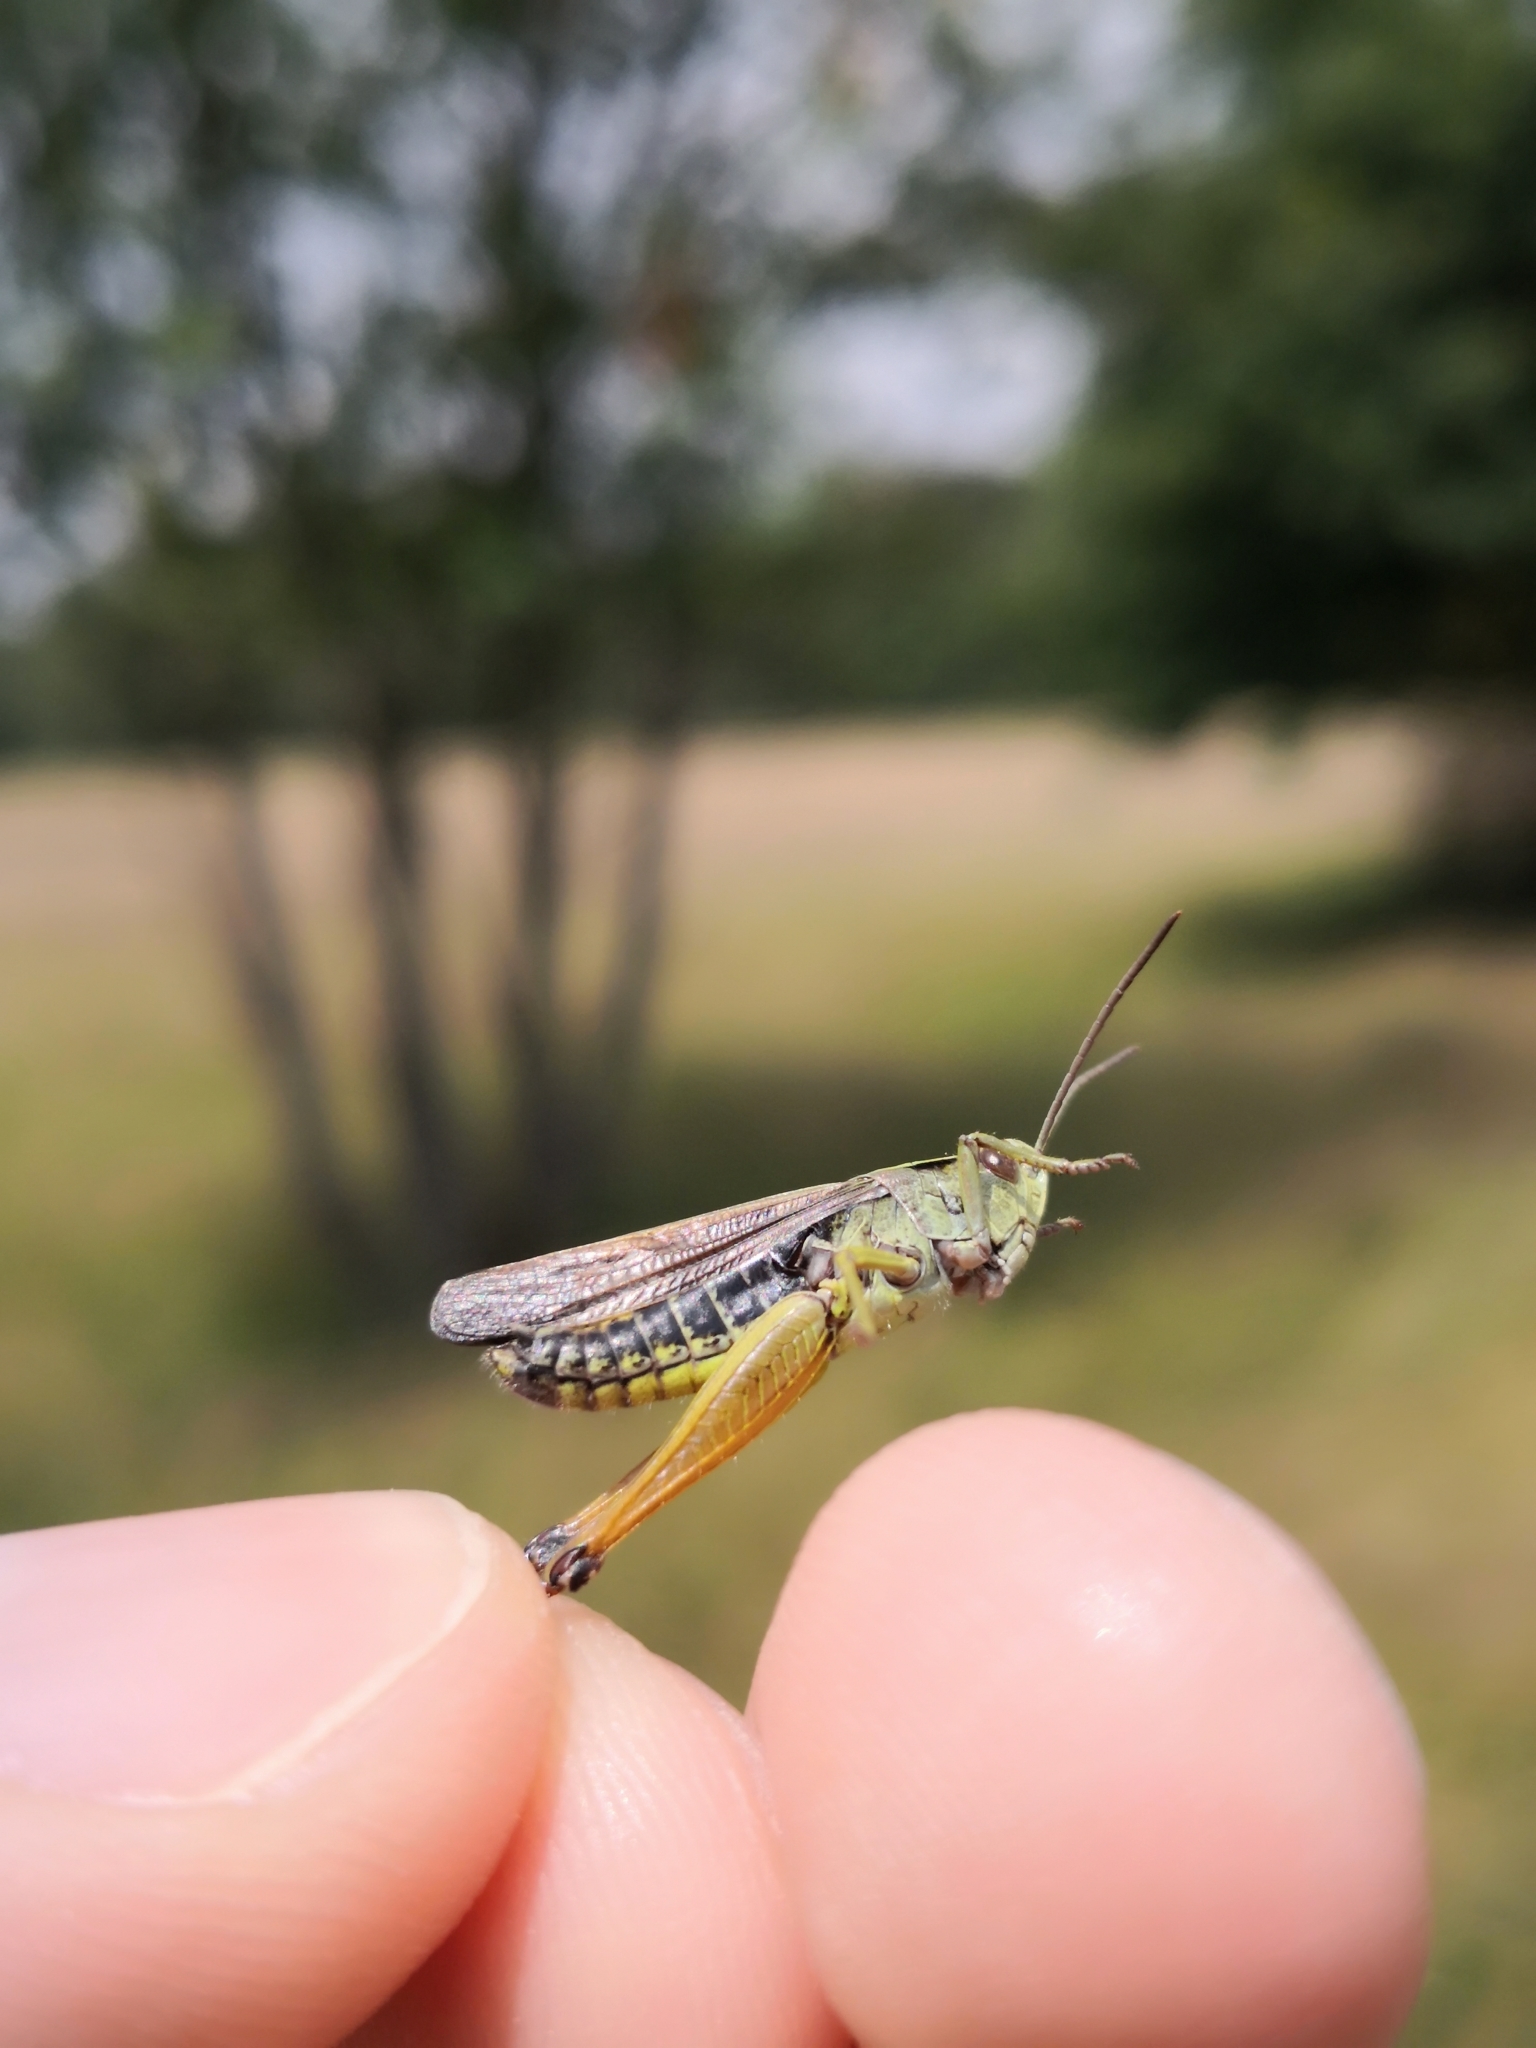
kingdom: Animalia
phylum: Arthropoda
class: Insecta
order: Orthoptera
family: Acrididae
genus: Omocestus
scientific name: Omocestus viridulus
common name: Common green grasshopper
